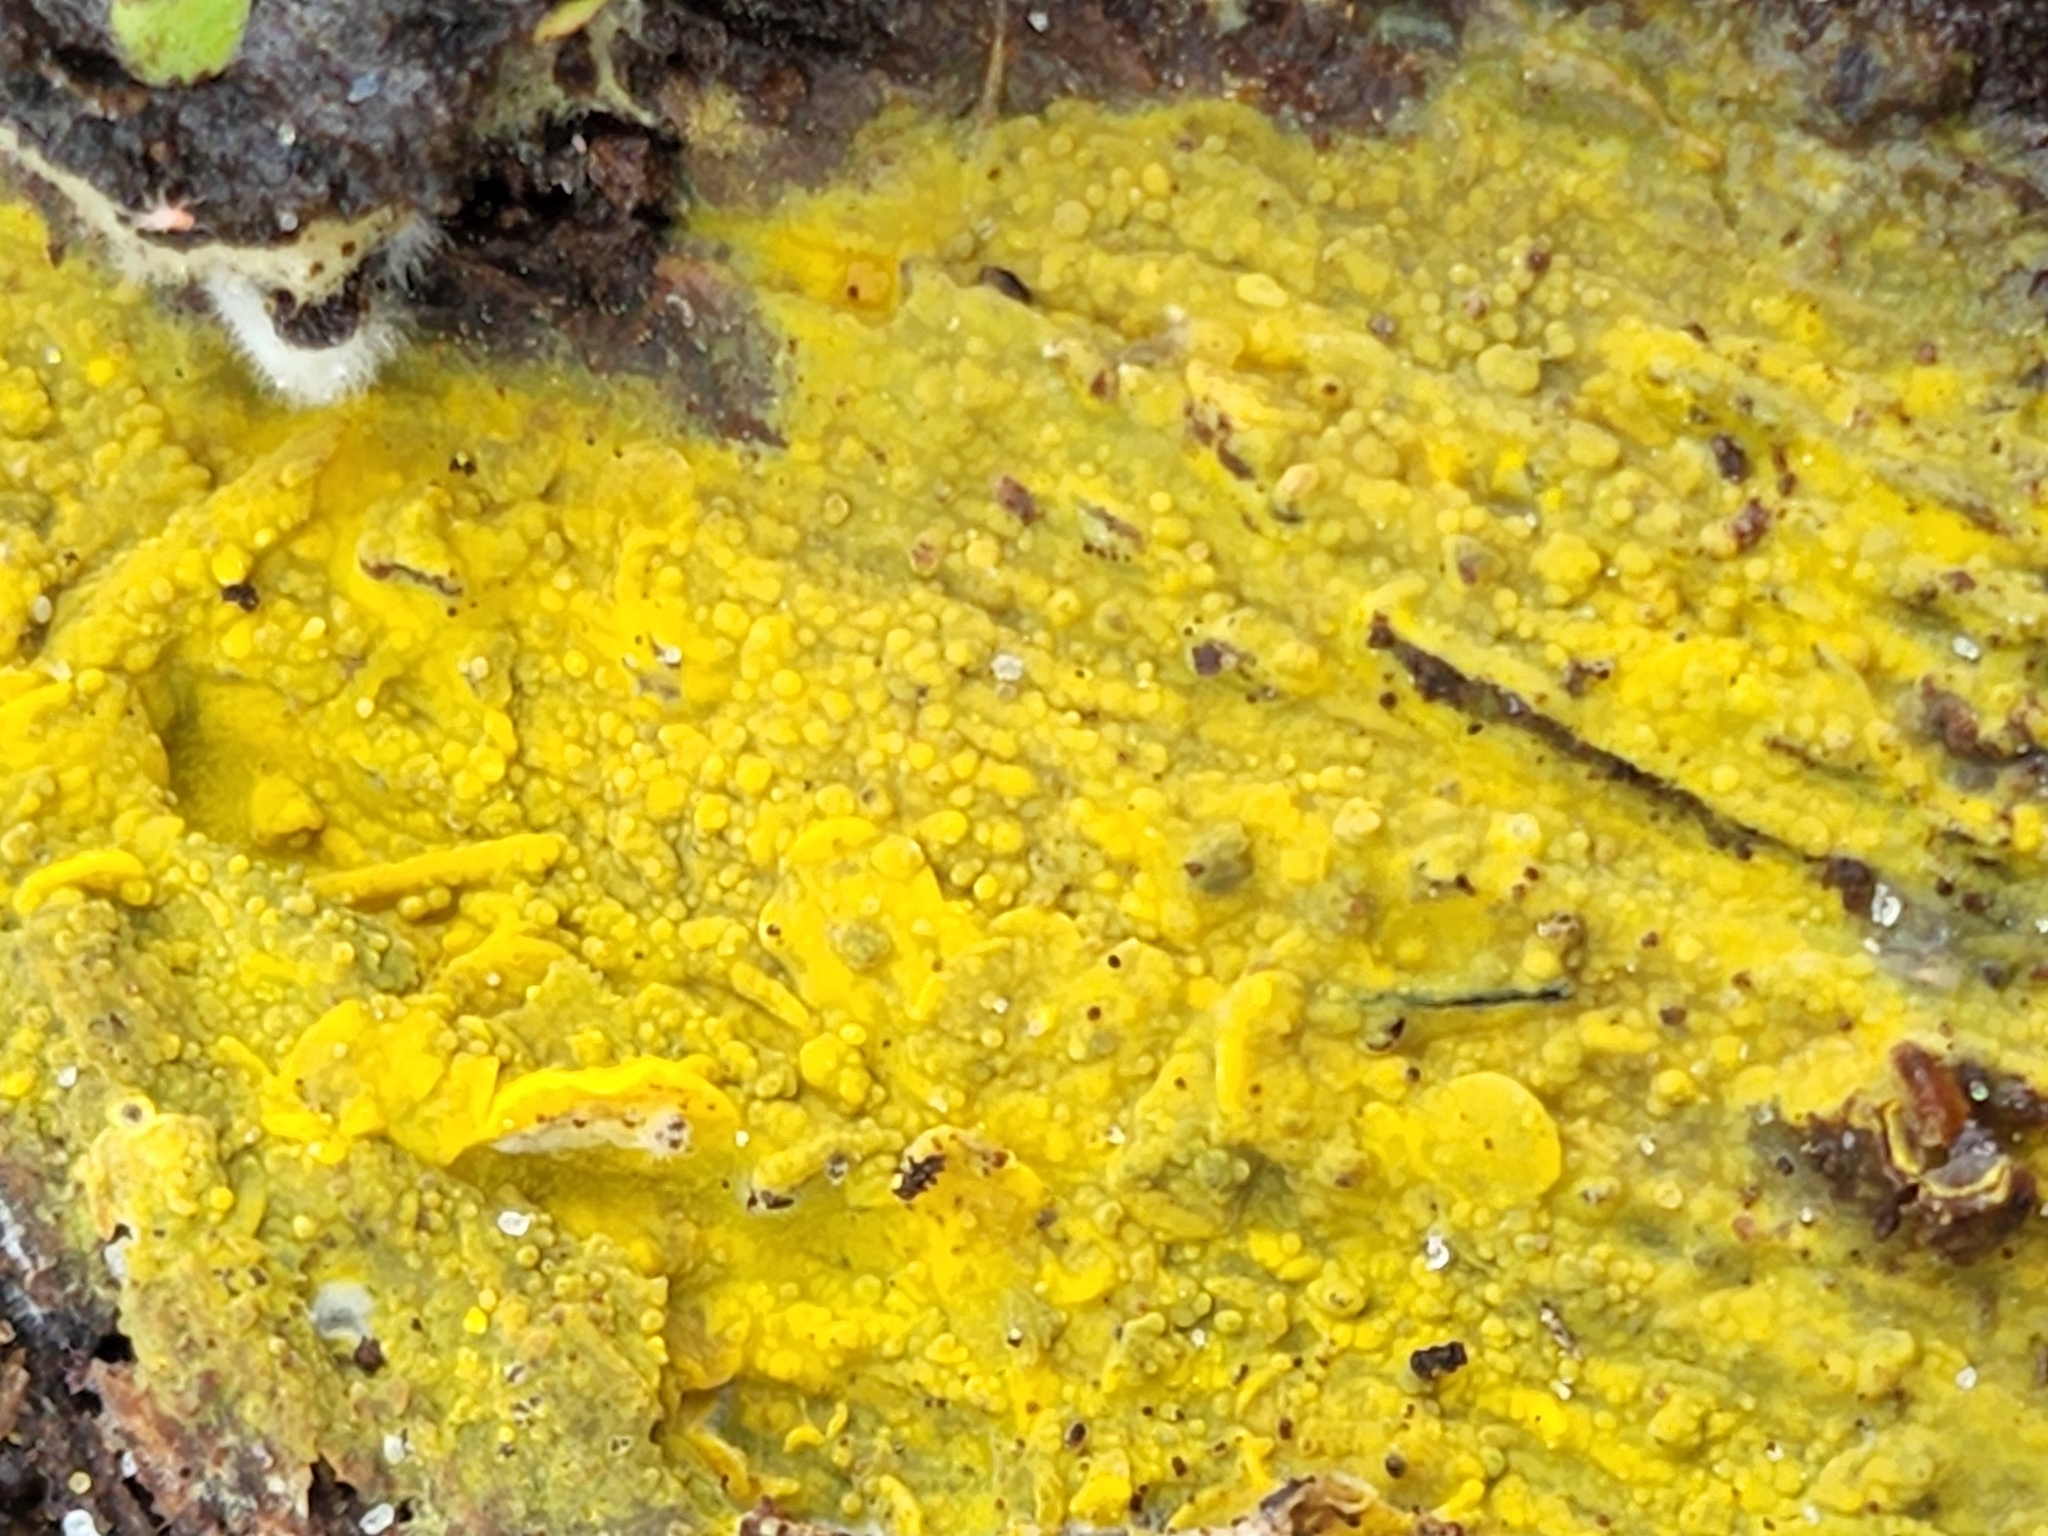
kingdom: Fungi
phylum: Basidiomycota
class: Agaricomycetes
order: Polyporales
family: Meruliaceae
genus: Phlebiodontia
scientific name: Phlebiodontia subochracea
